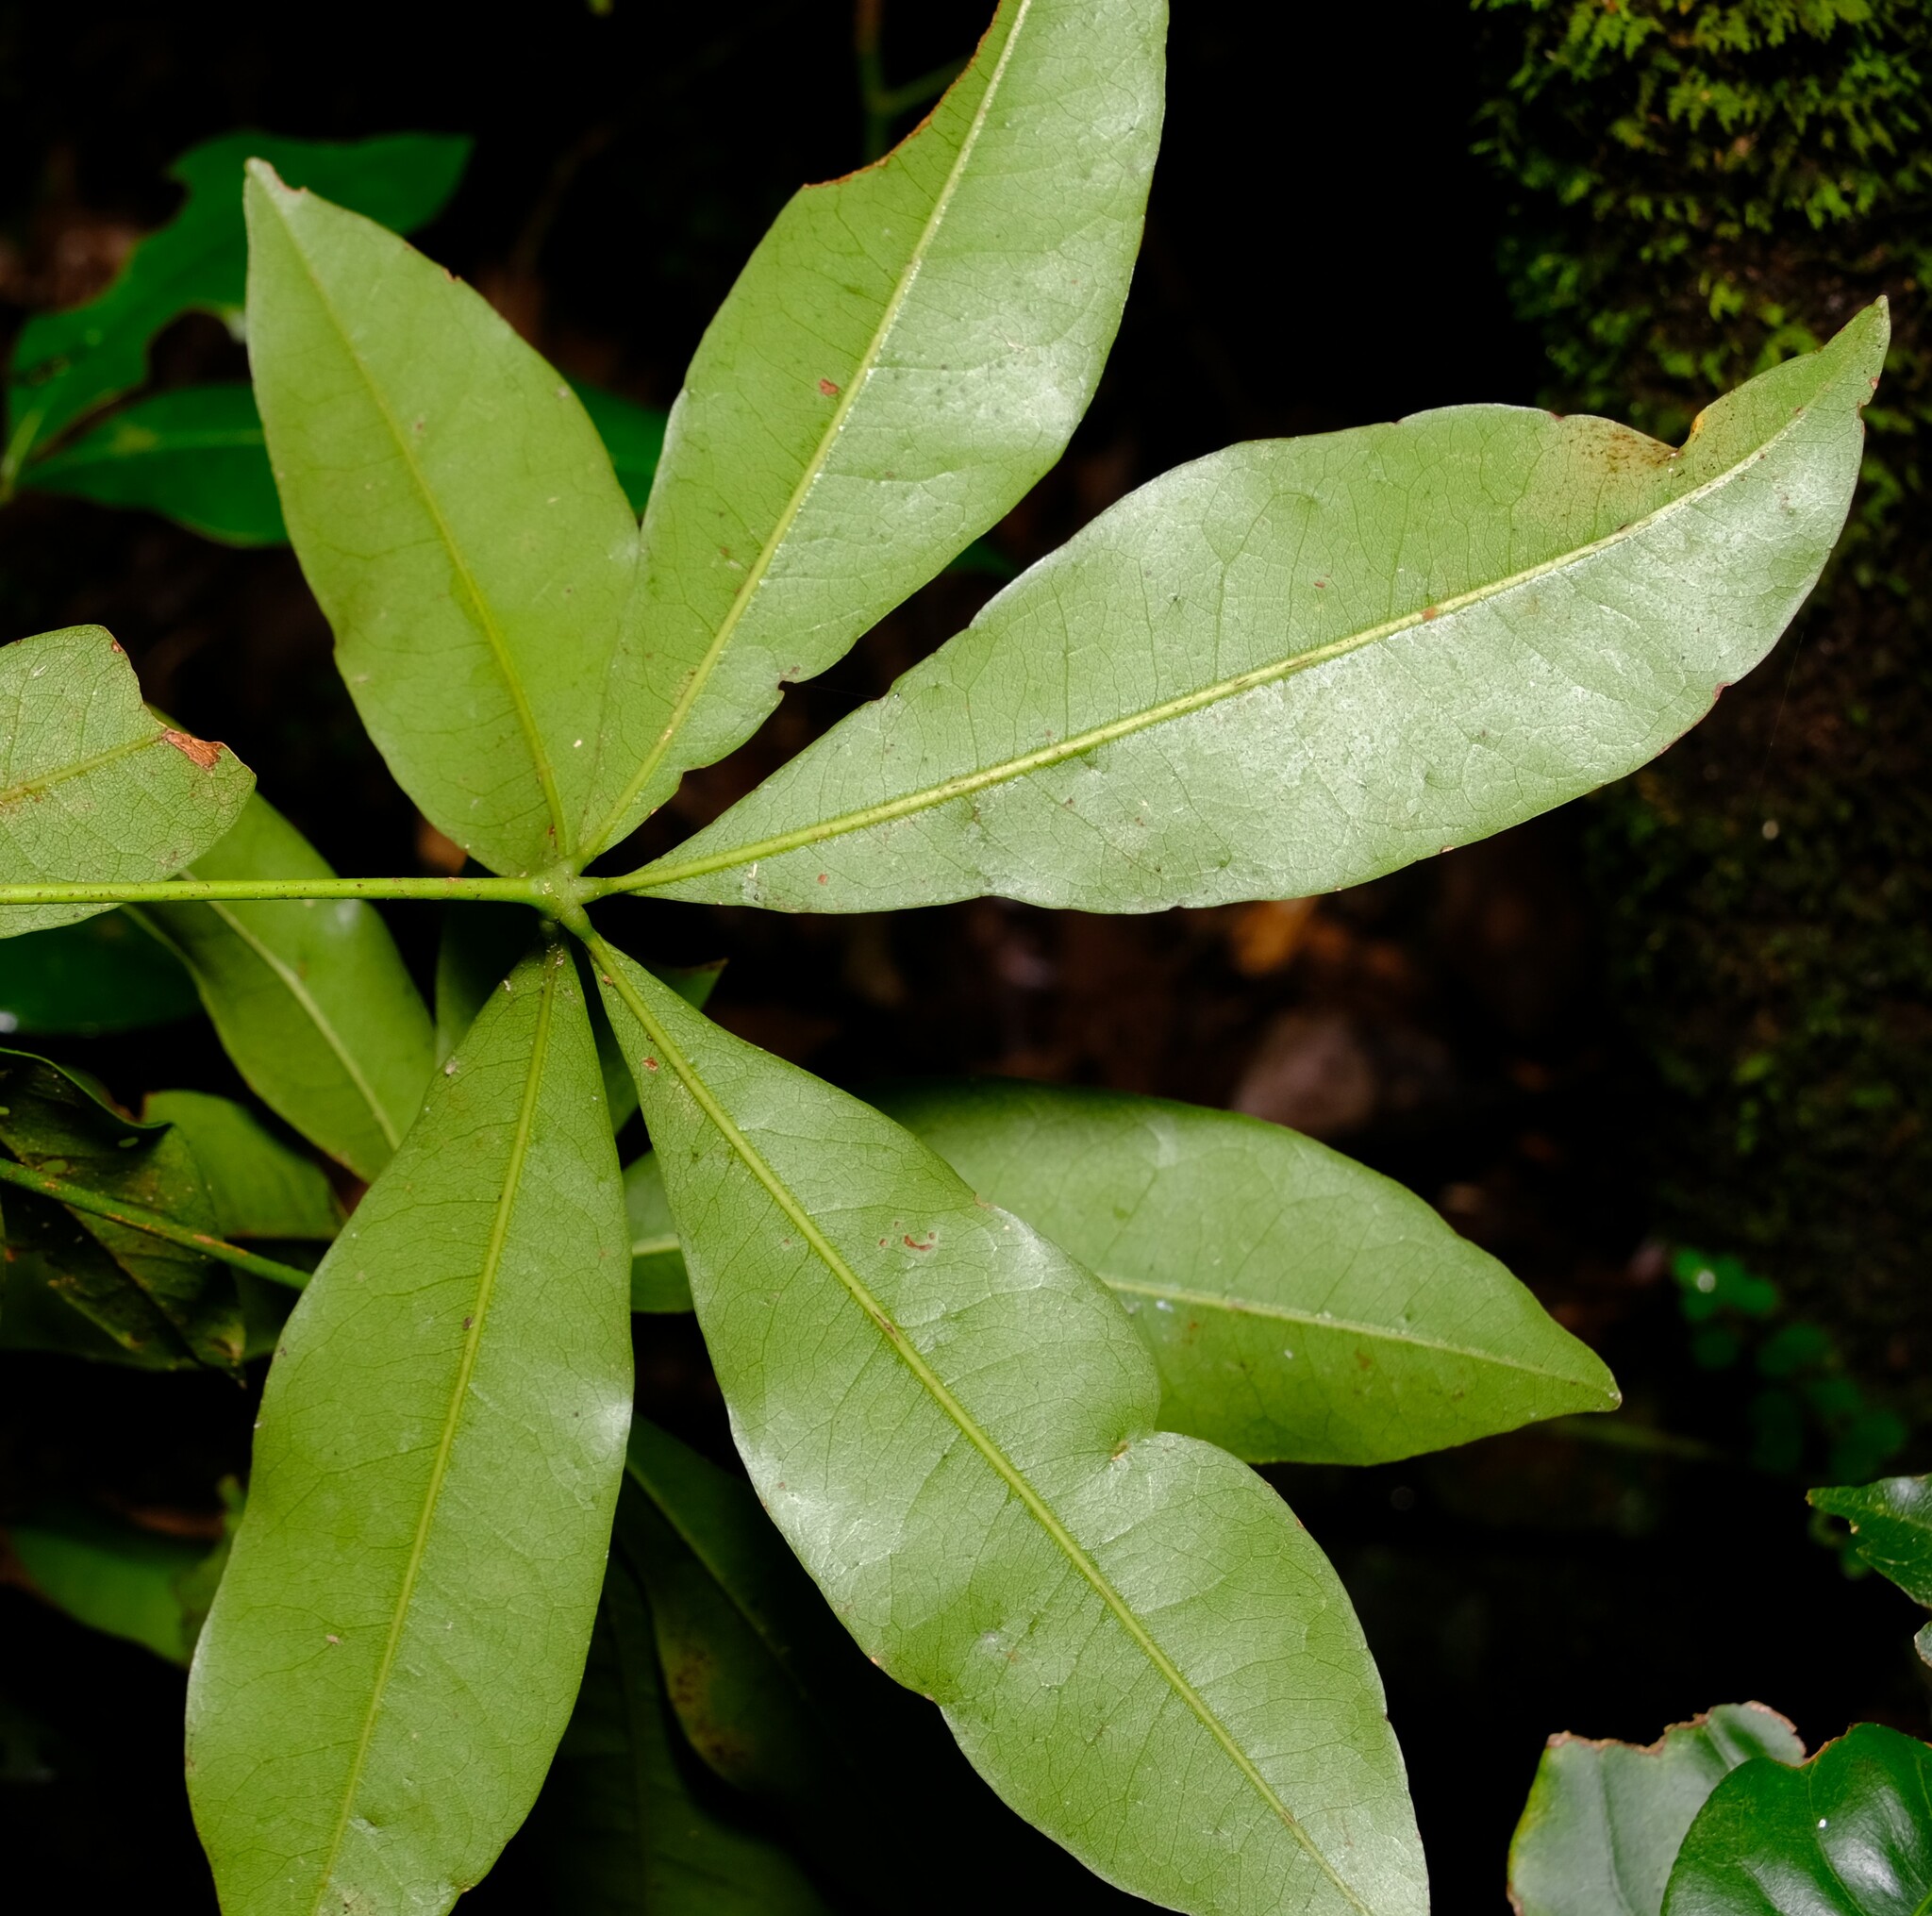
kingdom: Plantae
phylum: Tracheophyta
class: Magnoliopsida
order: Malvales
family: Malvaceae
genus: Argyrodendron
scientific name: Argyrodendron actinophyllum
